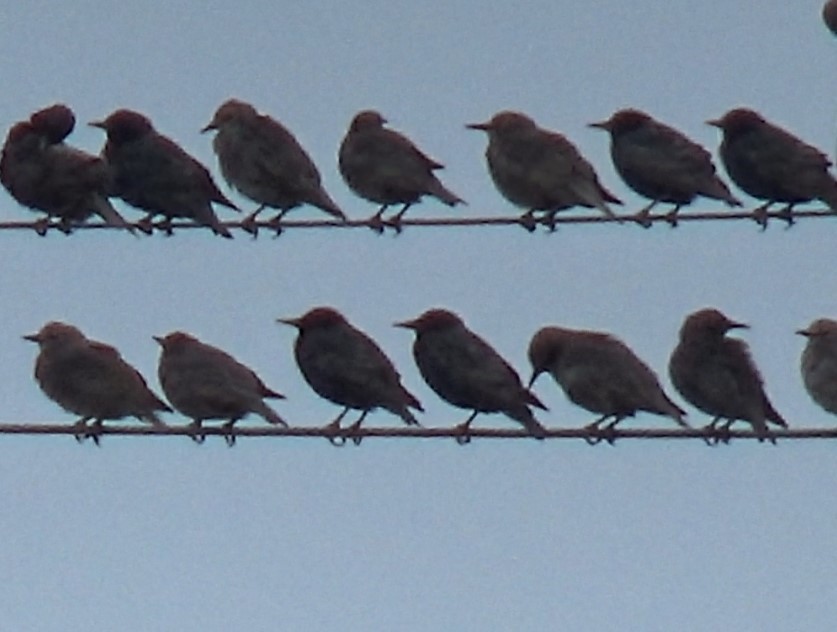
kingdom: Animalia
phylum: Chordata
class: Aves
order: Passeriformes
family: Sturnidae
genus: Sturnus
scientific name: Sturnus vulgaris
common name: Common starling
